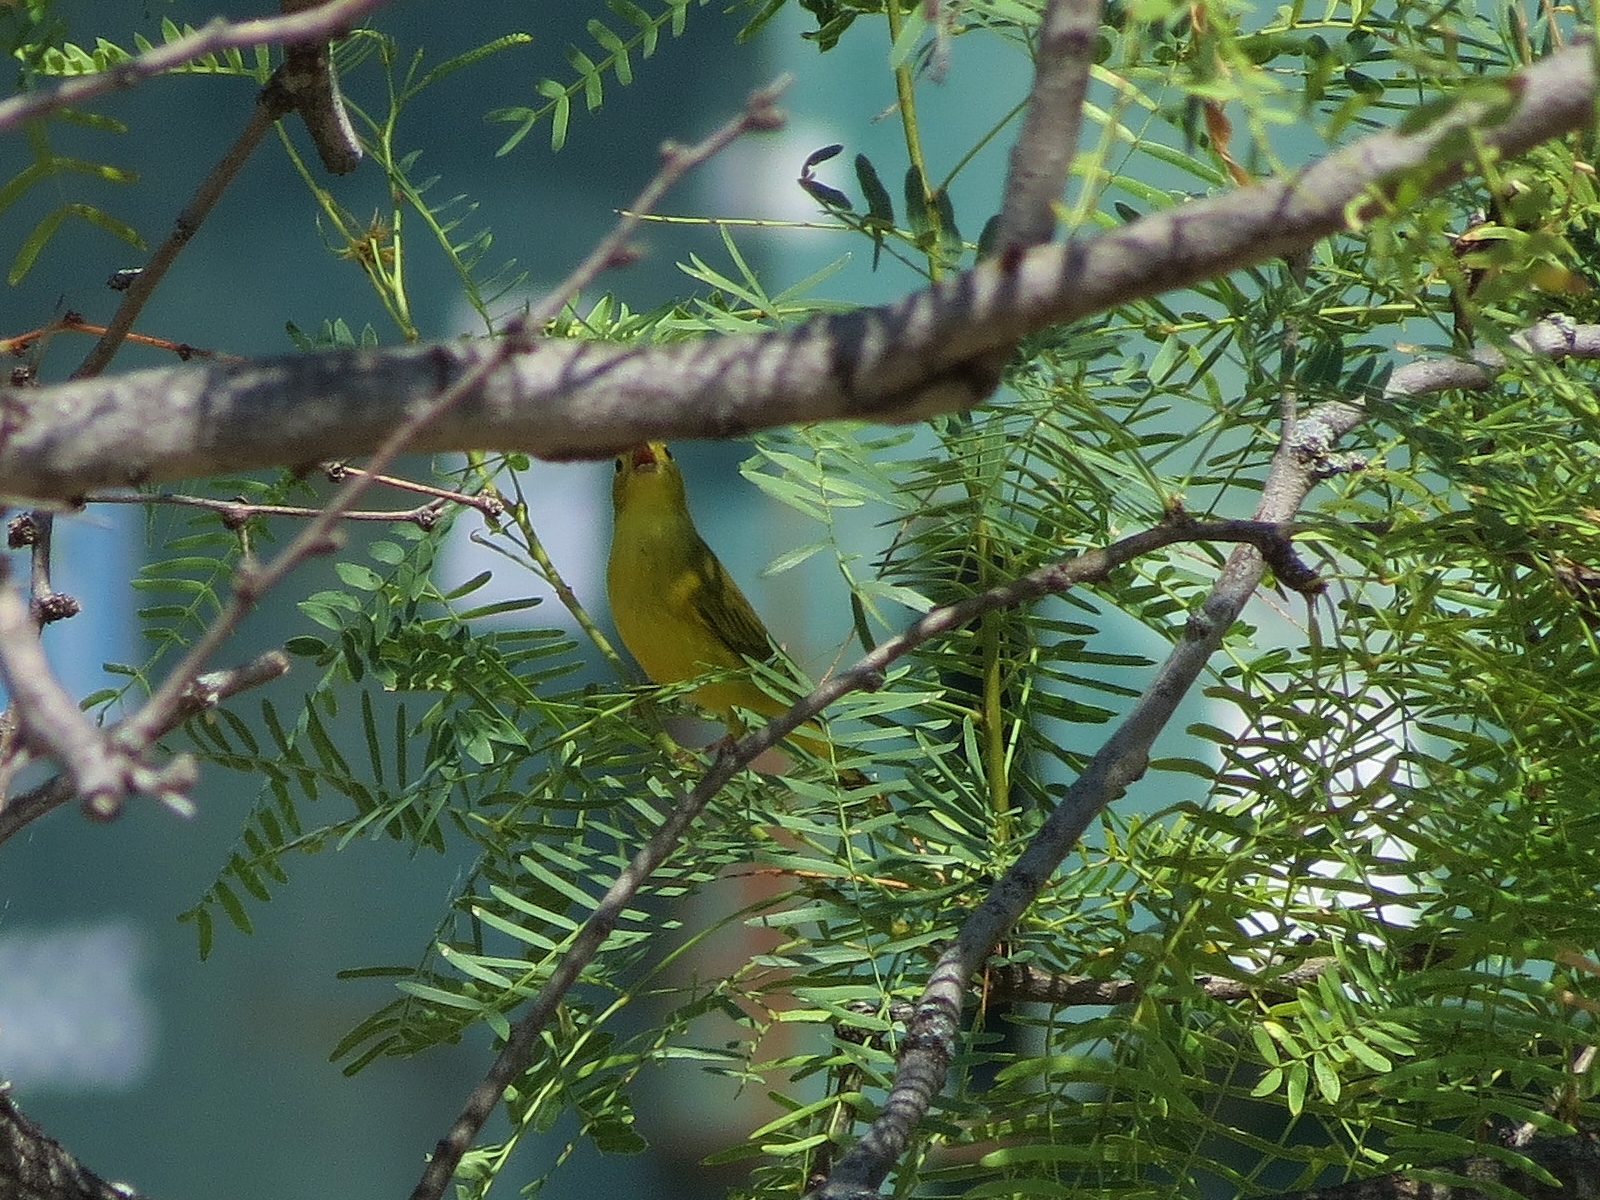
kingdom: Animalia
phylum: Chordata
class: Aves
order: Passeriformes
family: Parulidae
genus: Setophaga
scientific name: Setophaga petechia
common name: Yellow warbler
